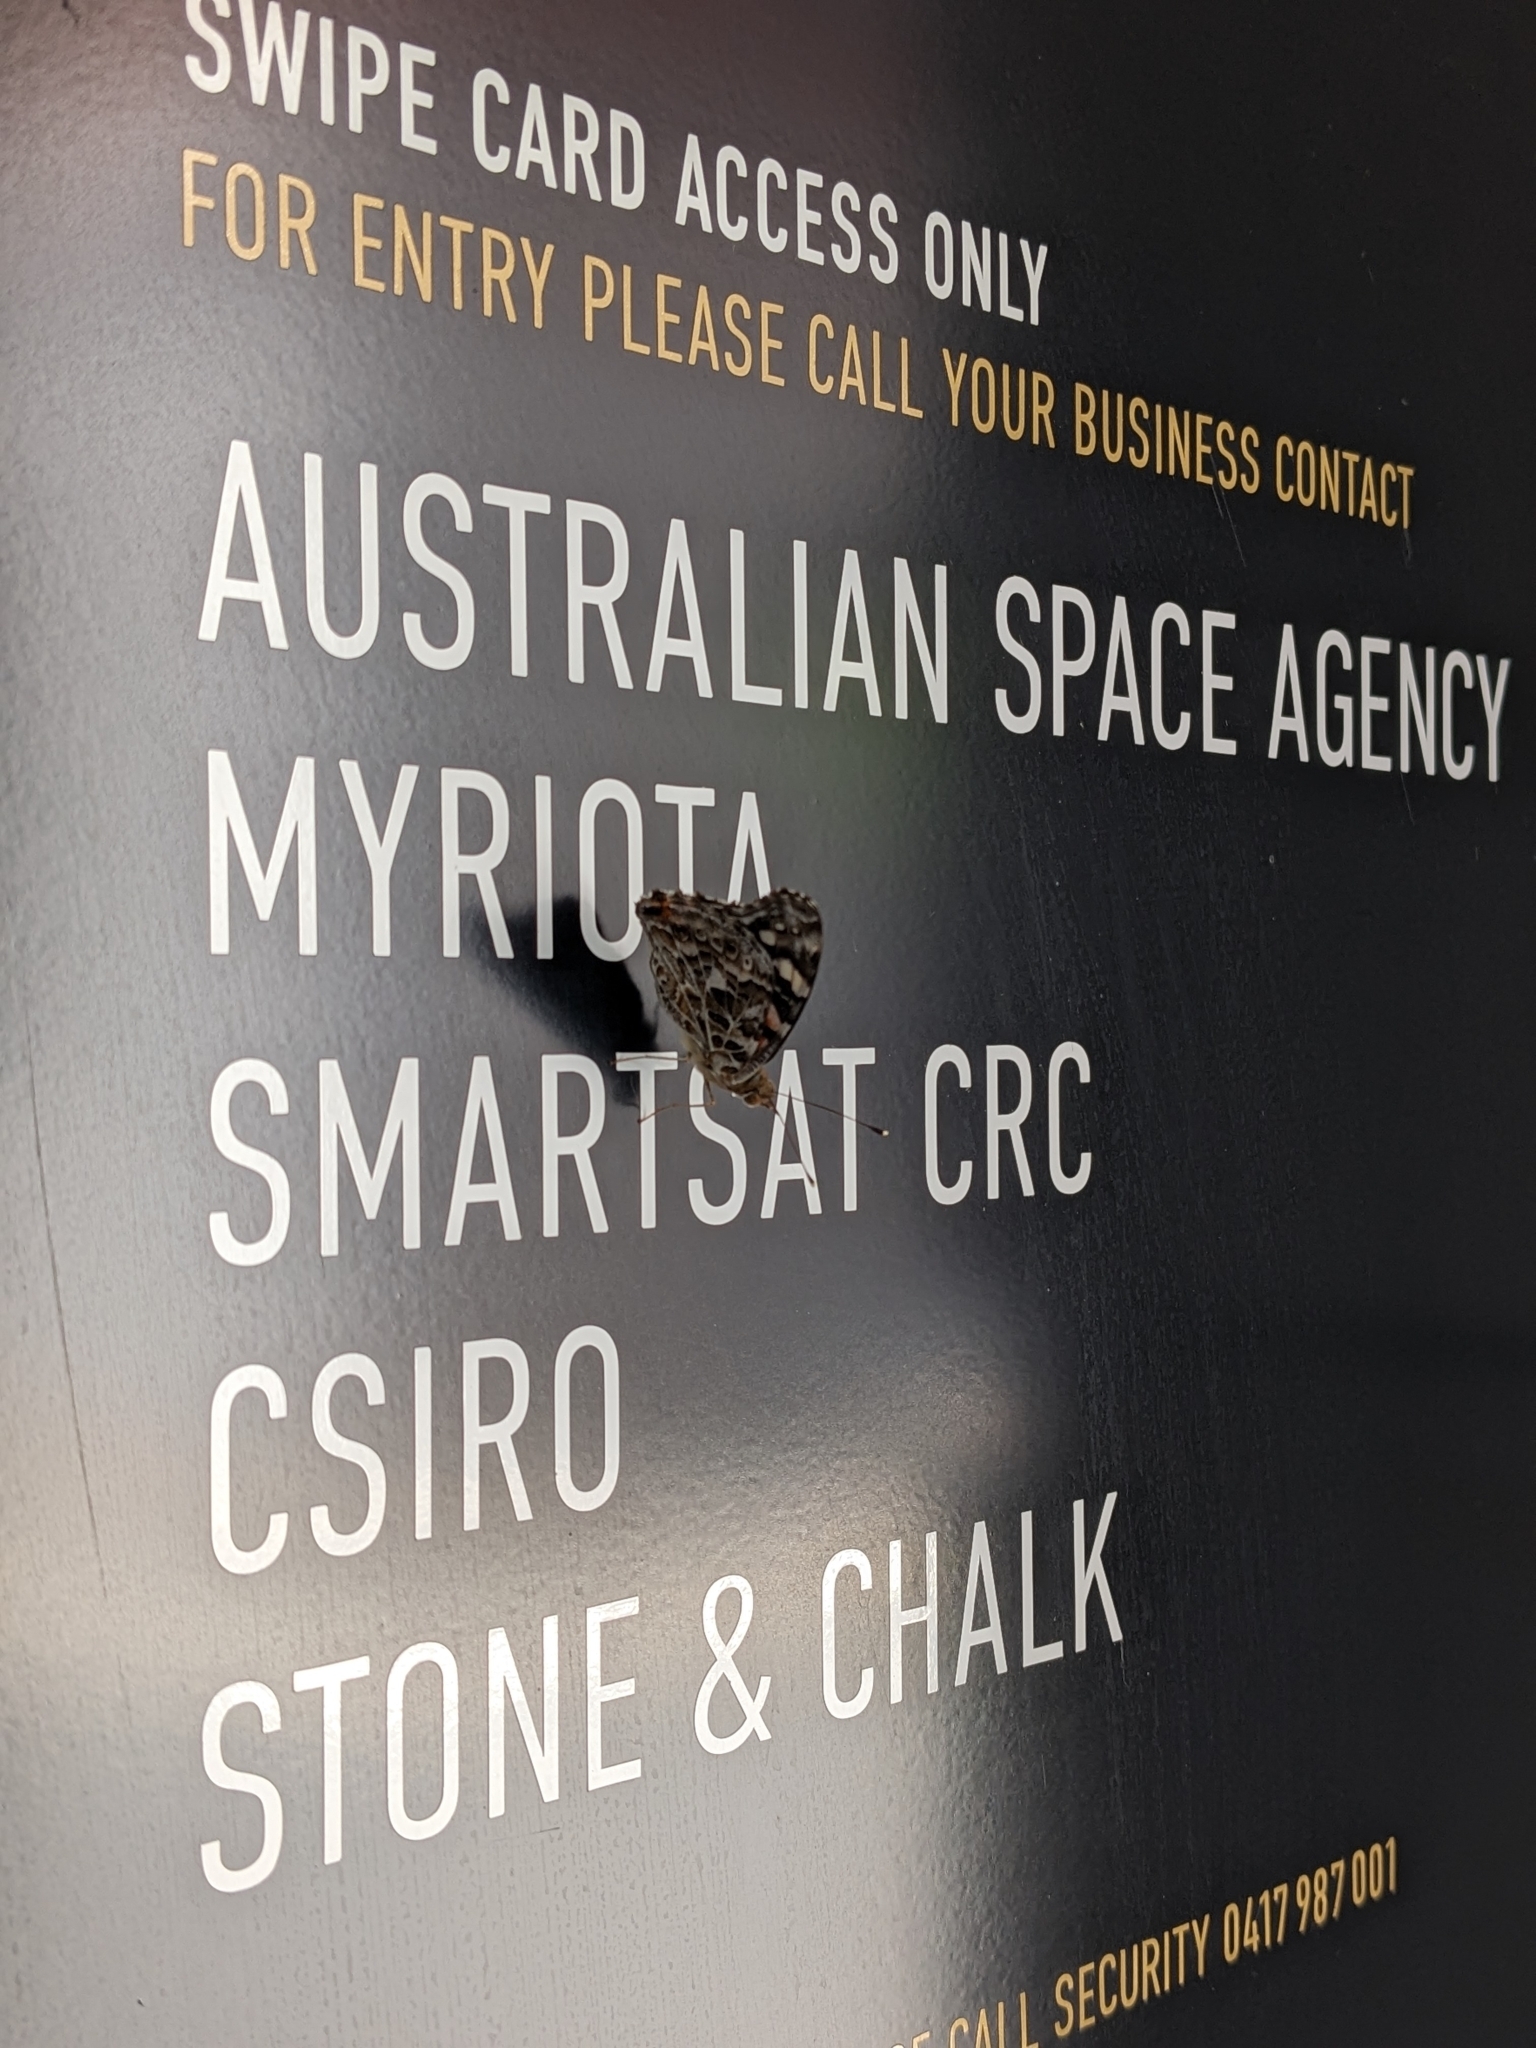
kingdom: Animalia
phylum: Arthropoda
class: Insecta
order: Lepidoptera
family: Nymphalidae
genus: Vanessa
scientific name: Vanessa kershawi
